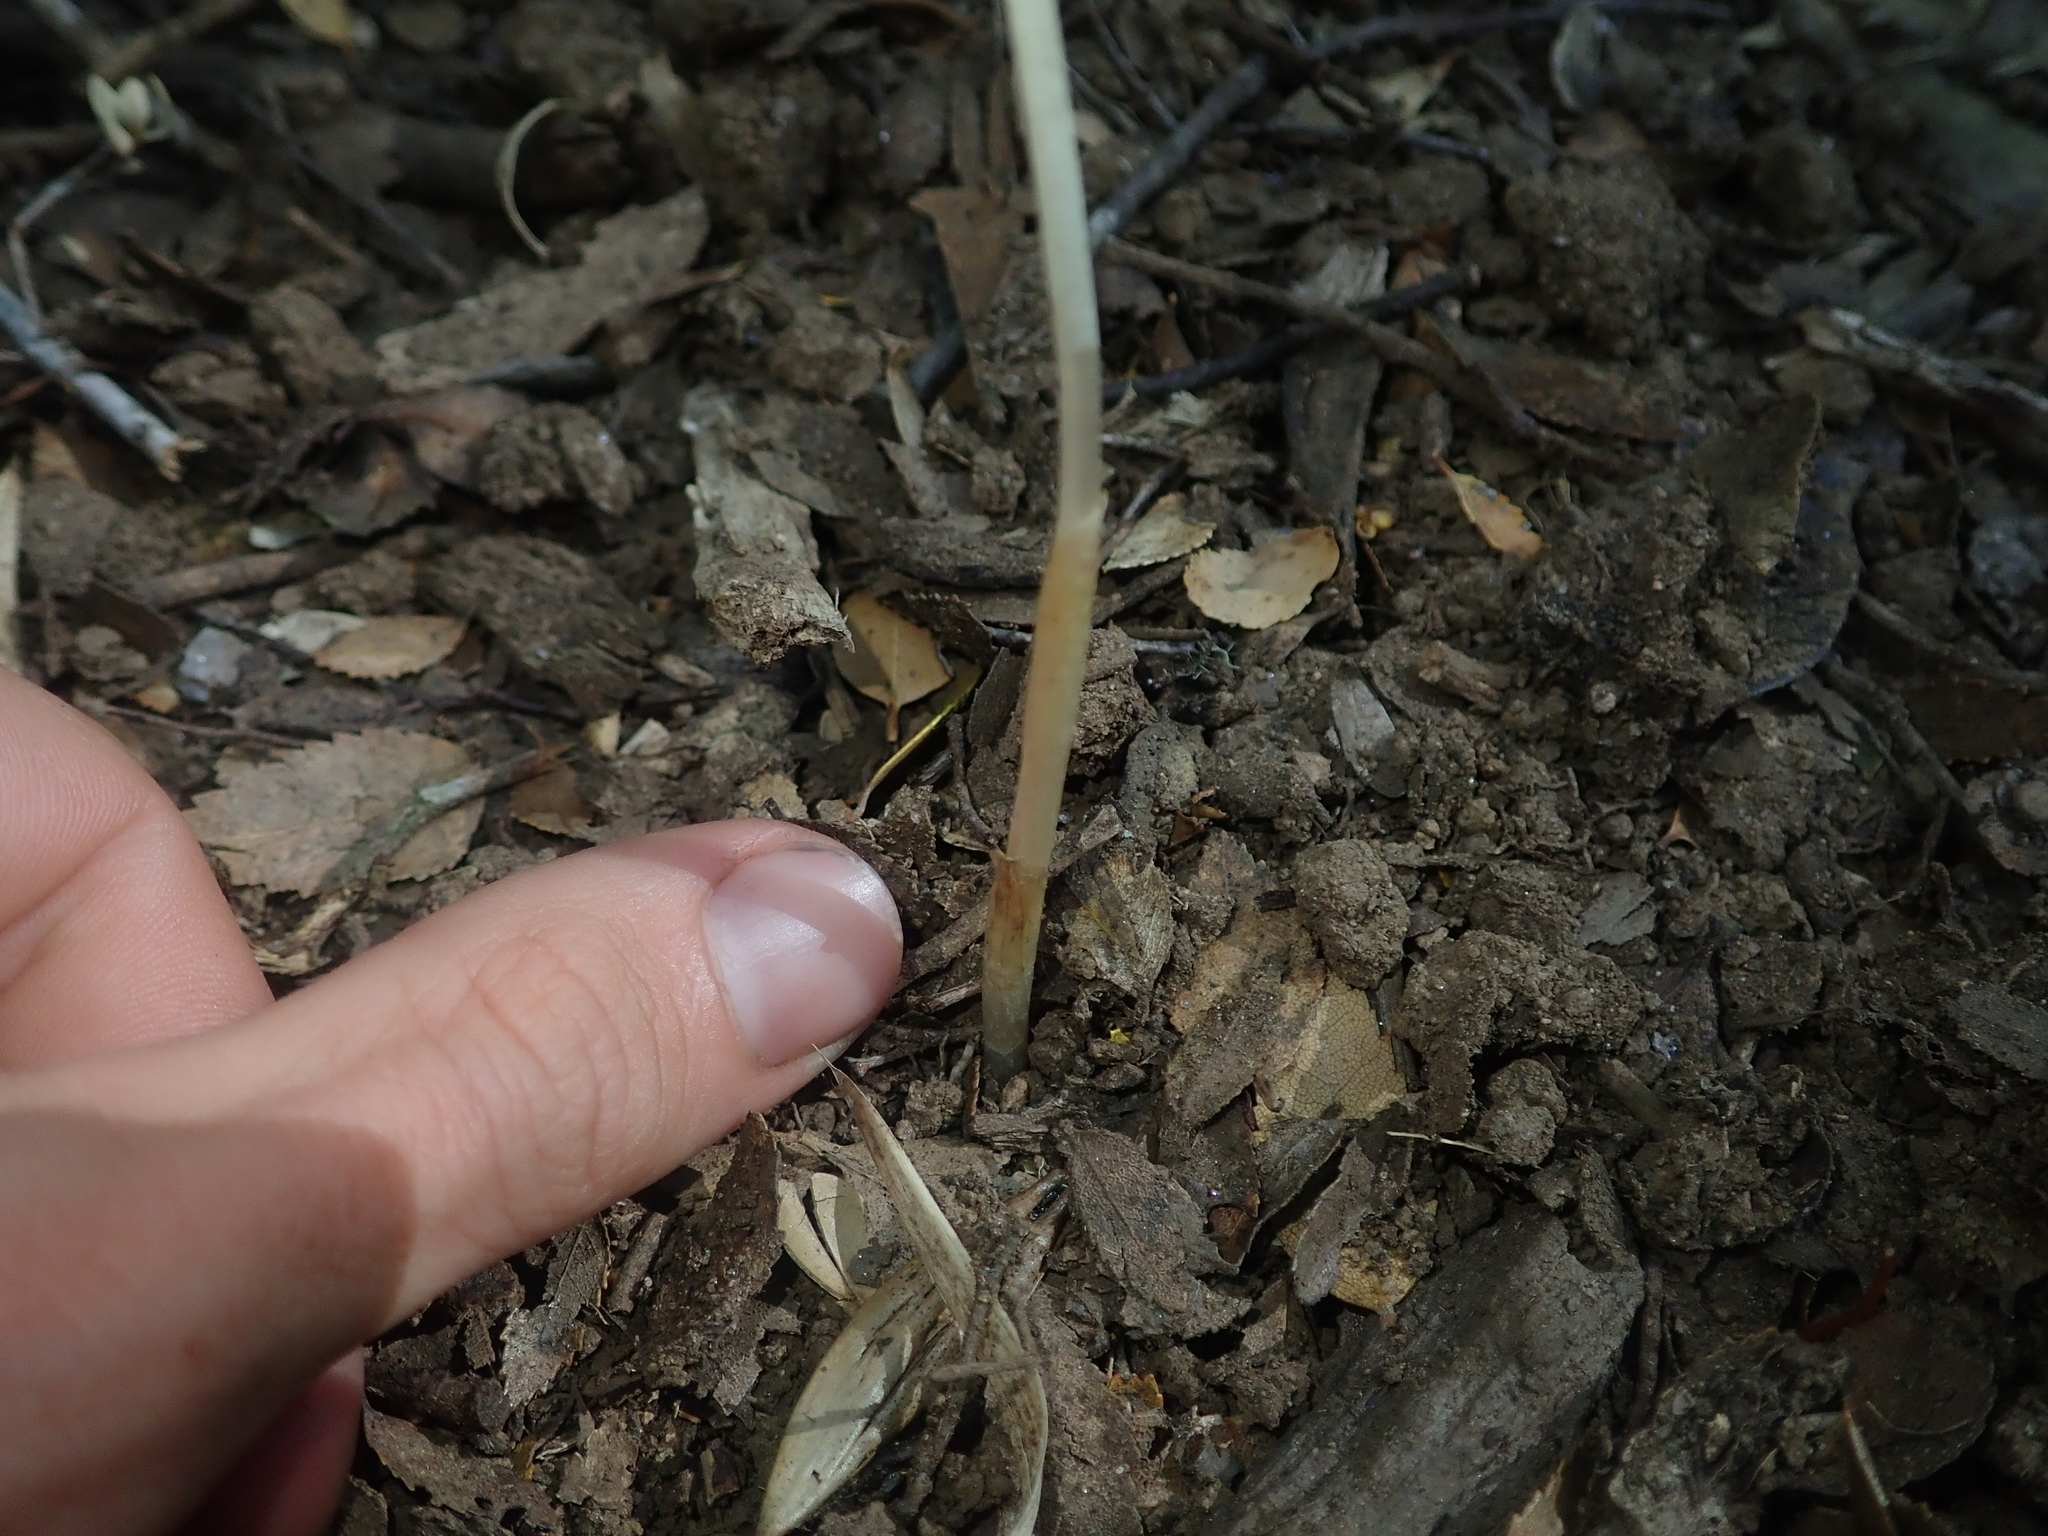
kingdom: Plantae
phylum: Tracheophyta
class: Liliopsida
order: Liliales
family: Corsiaceae
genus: Arachnitis
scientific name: Arachnitis uniflora
